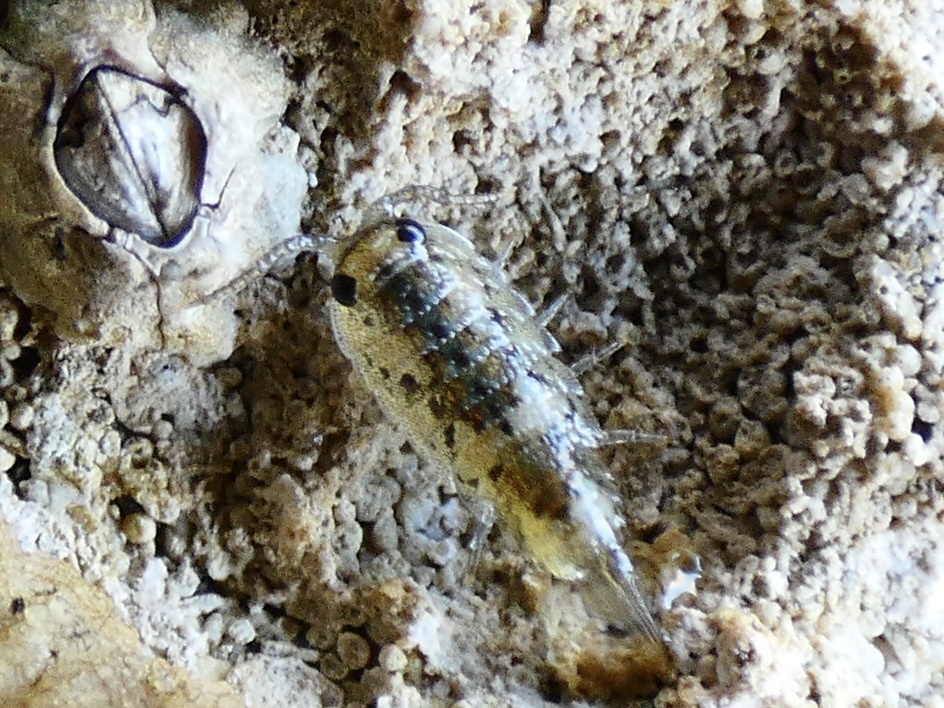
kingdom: Animalia
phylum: Arthropoda
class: Malacostraca
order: Isopoda
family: Ligiidae
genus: Ligia
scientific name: Ligia oceanica
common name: Sea slater
